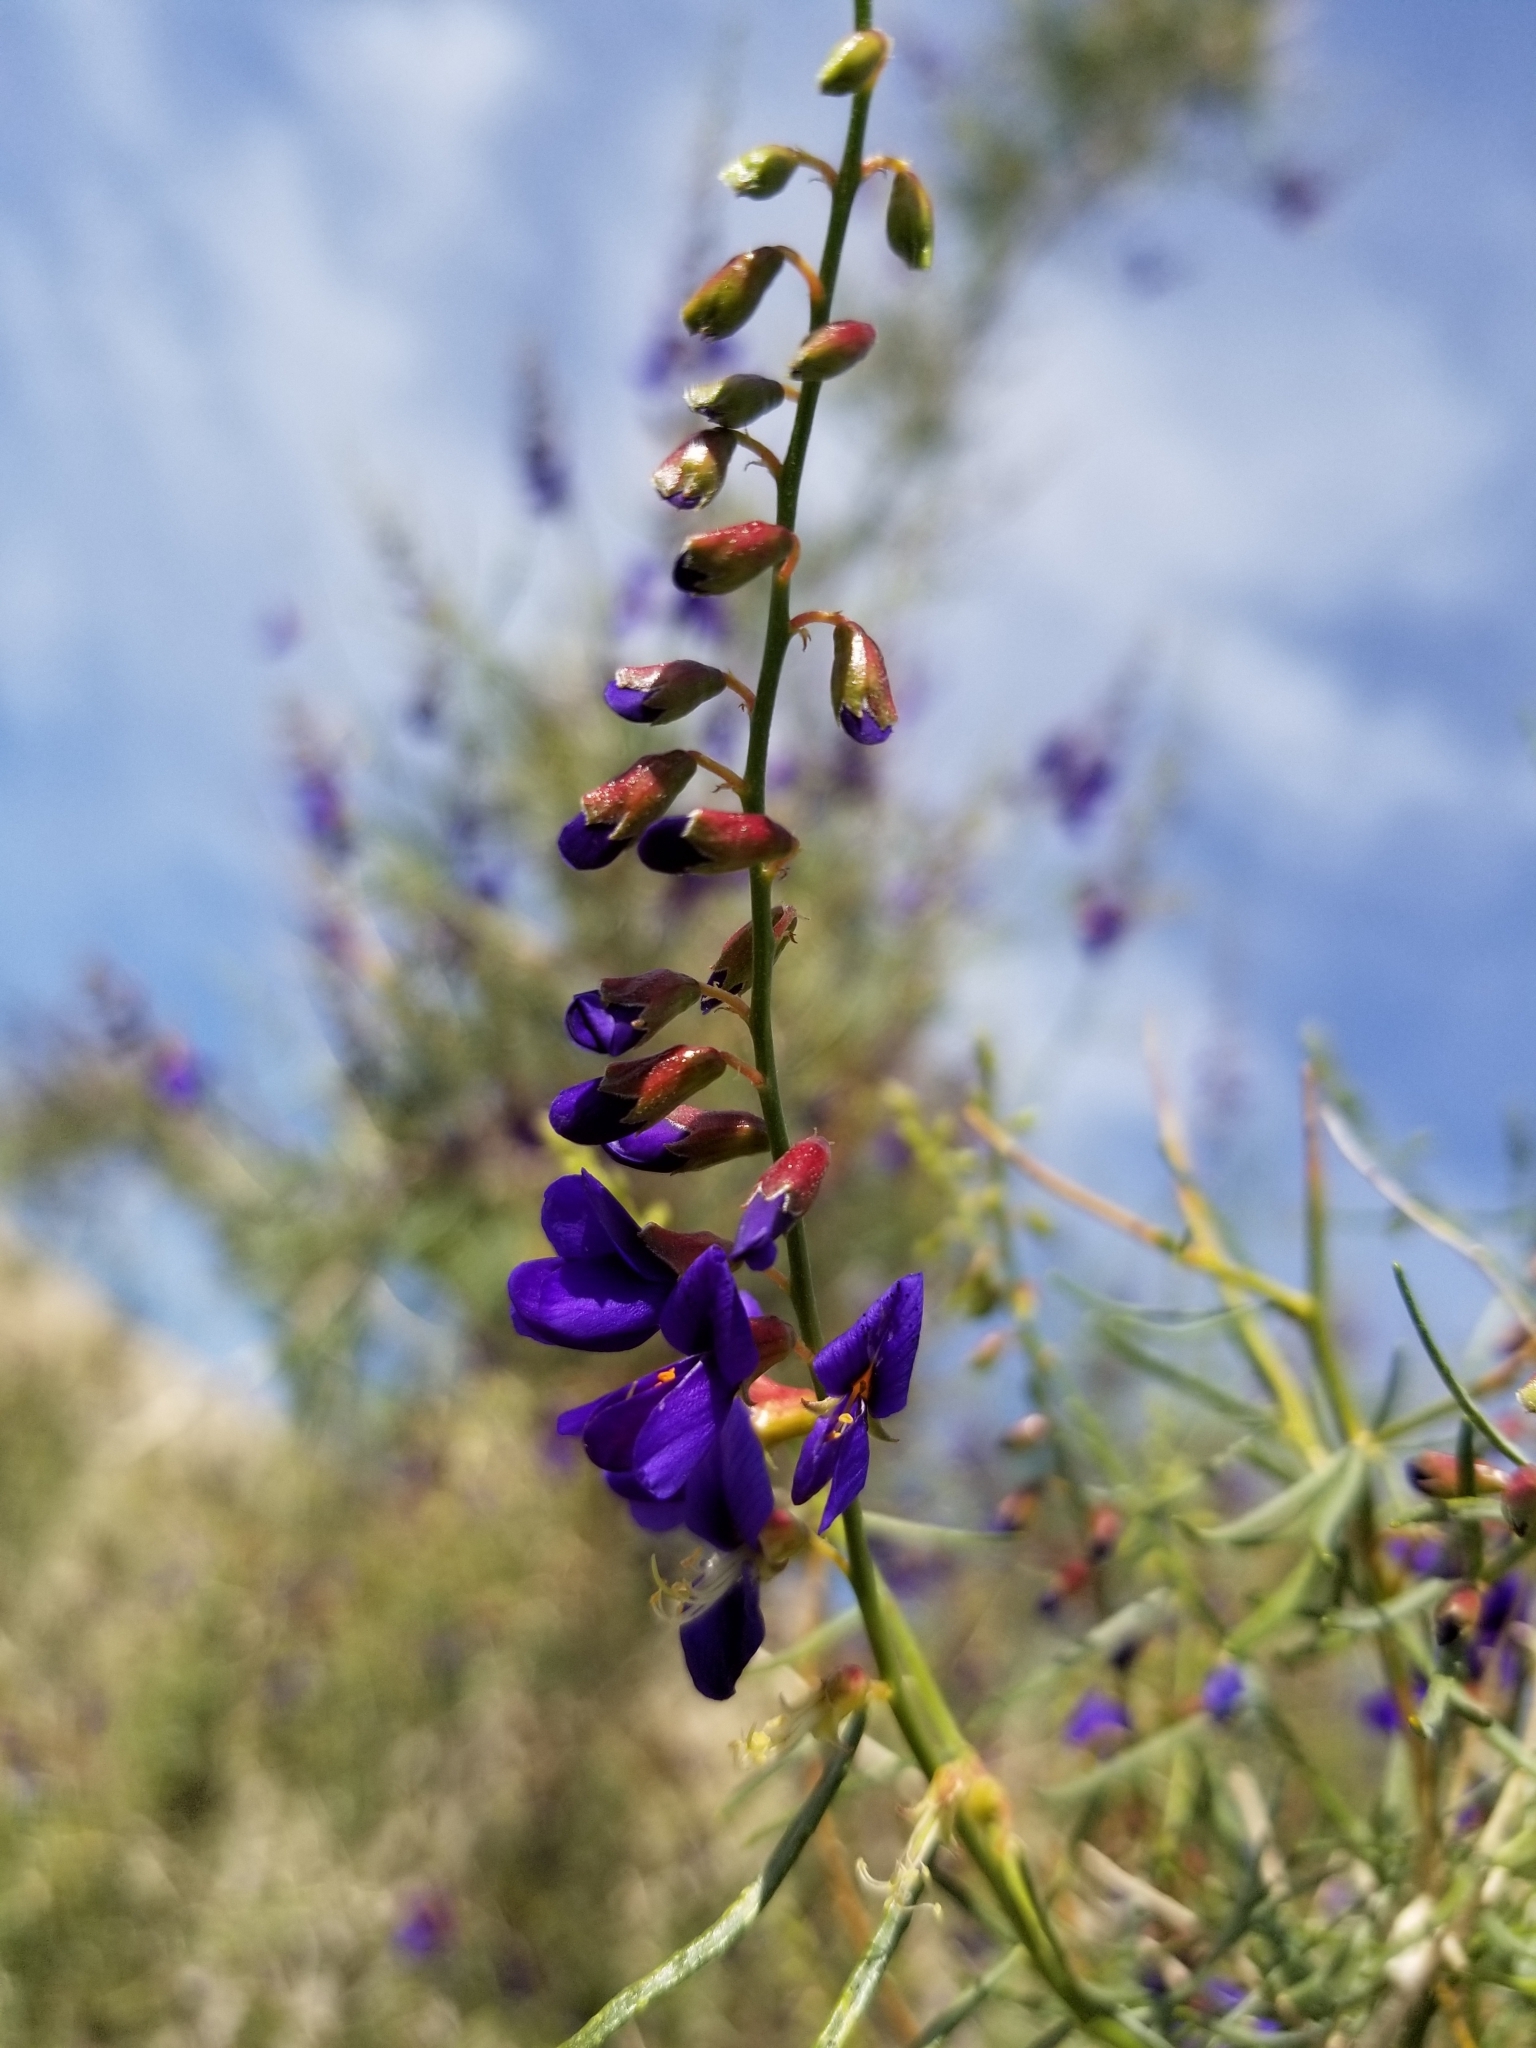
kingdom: Plantae
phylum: Tracheophyta
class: Magnoliopsida
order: Fabales
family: Fabaceae
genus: Psorothamnus
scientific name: Psorothamnus schottii
